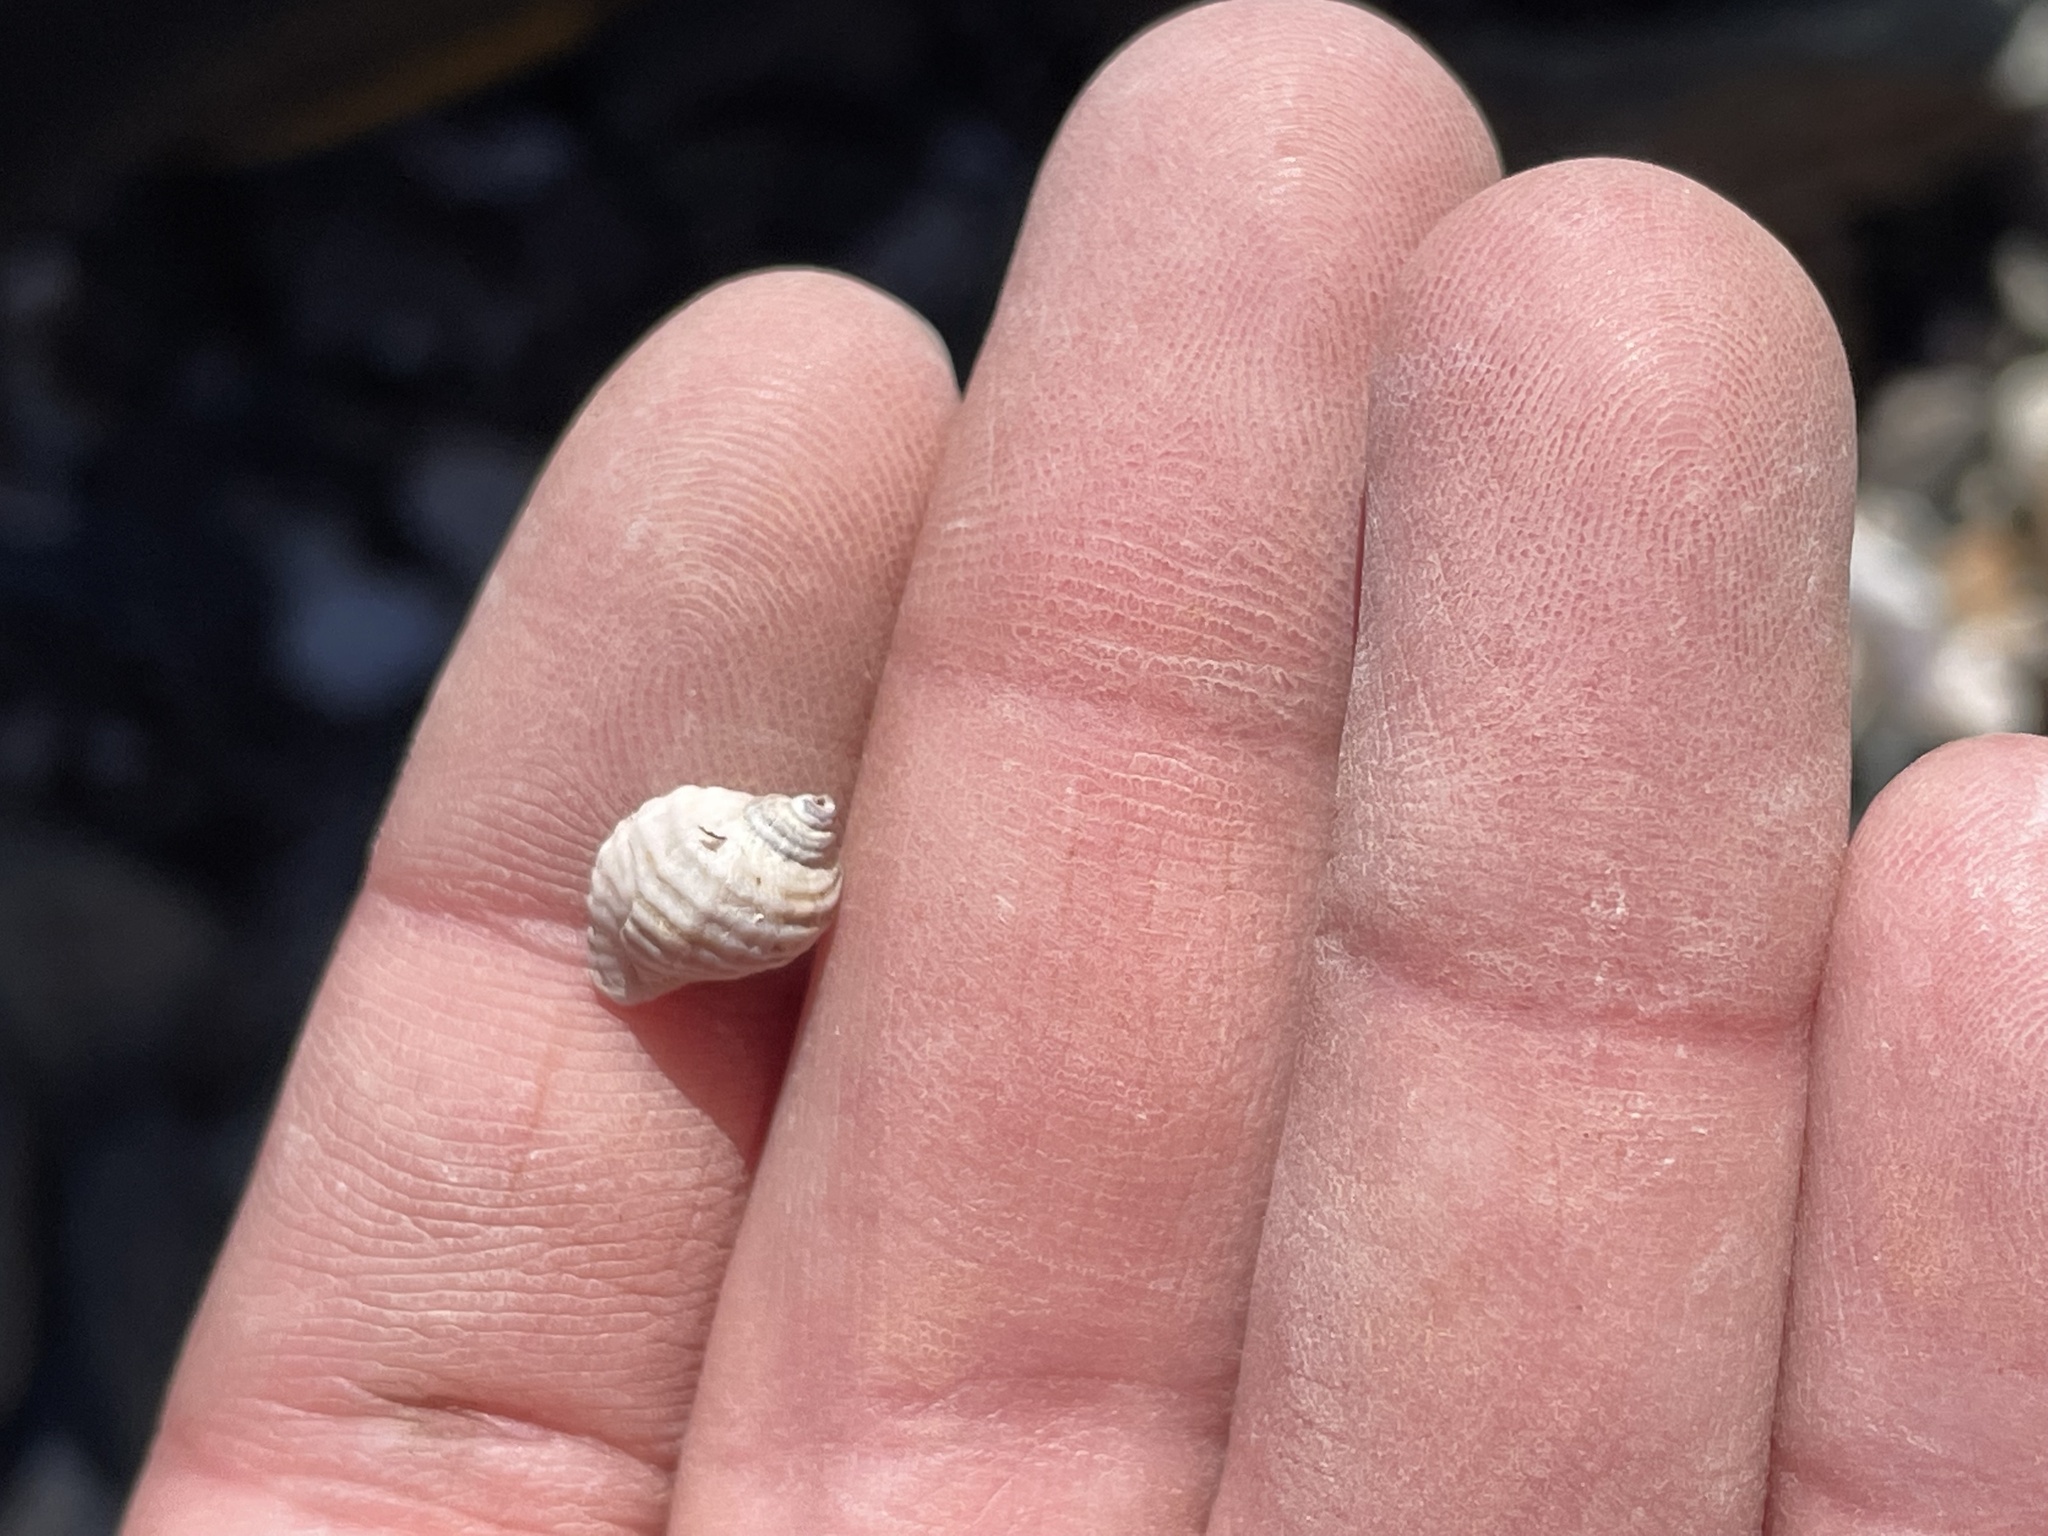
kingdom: Animalia
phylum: Mollusca
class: Gastropoda
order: Neogastropoda
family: Muricidae
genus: Nucella
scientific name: Nucella lapillus
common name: Dog whelk
